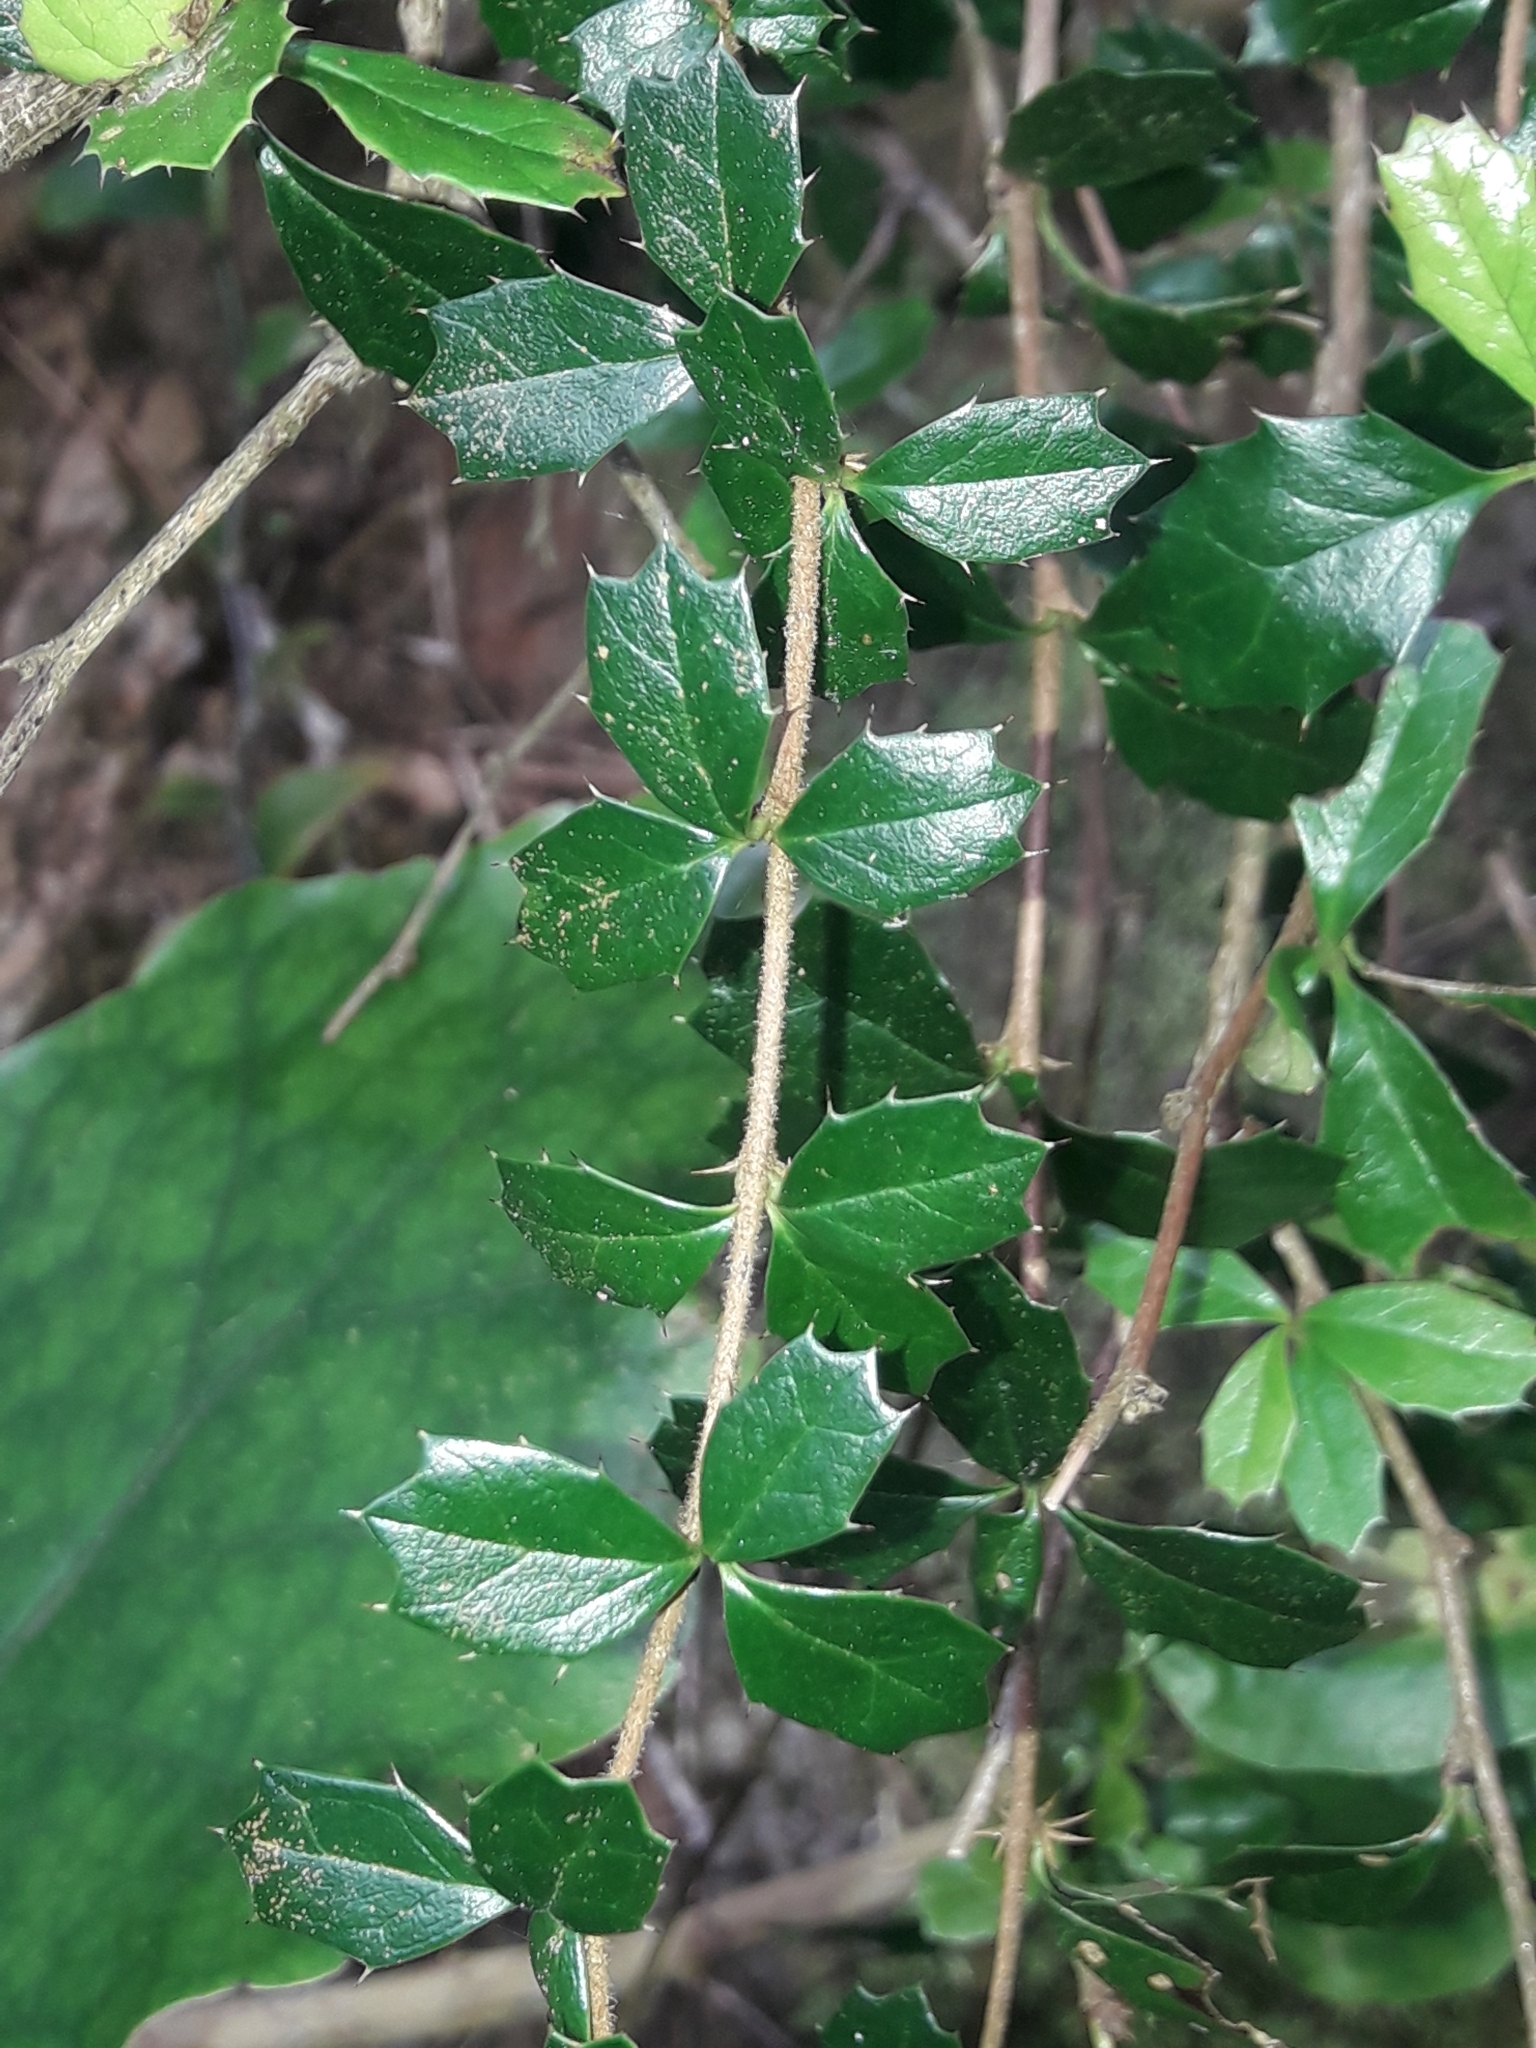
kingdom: Plantae
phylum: Tracheophyta
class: Magnoliopsida
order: Ranunculales
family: Berberidaceae
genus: Berberis
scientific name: Berberis darwinii
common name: Darwin's barberry
